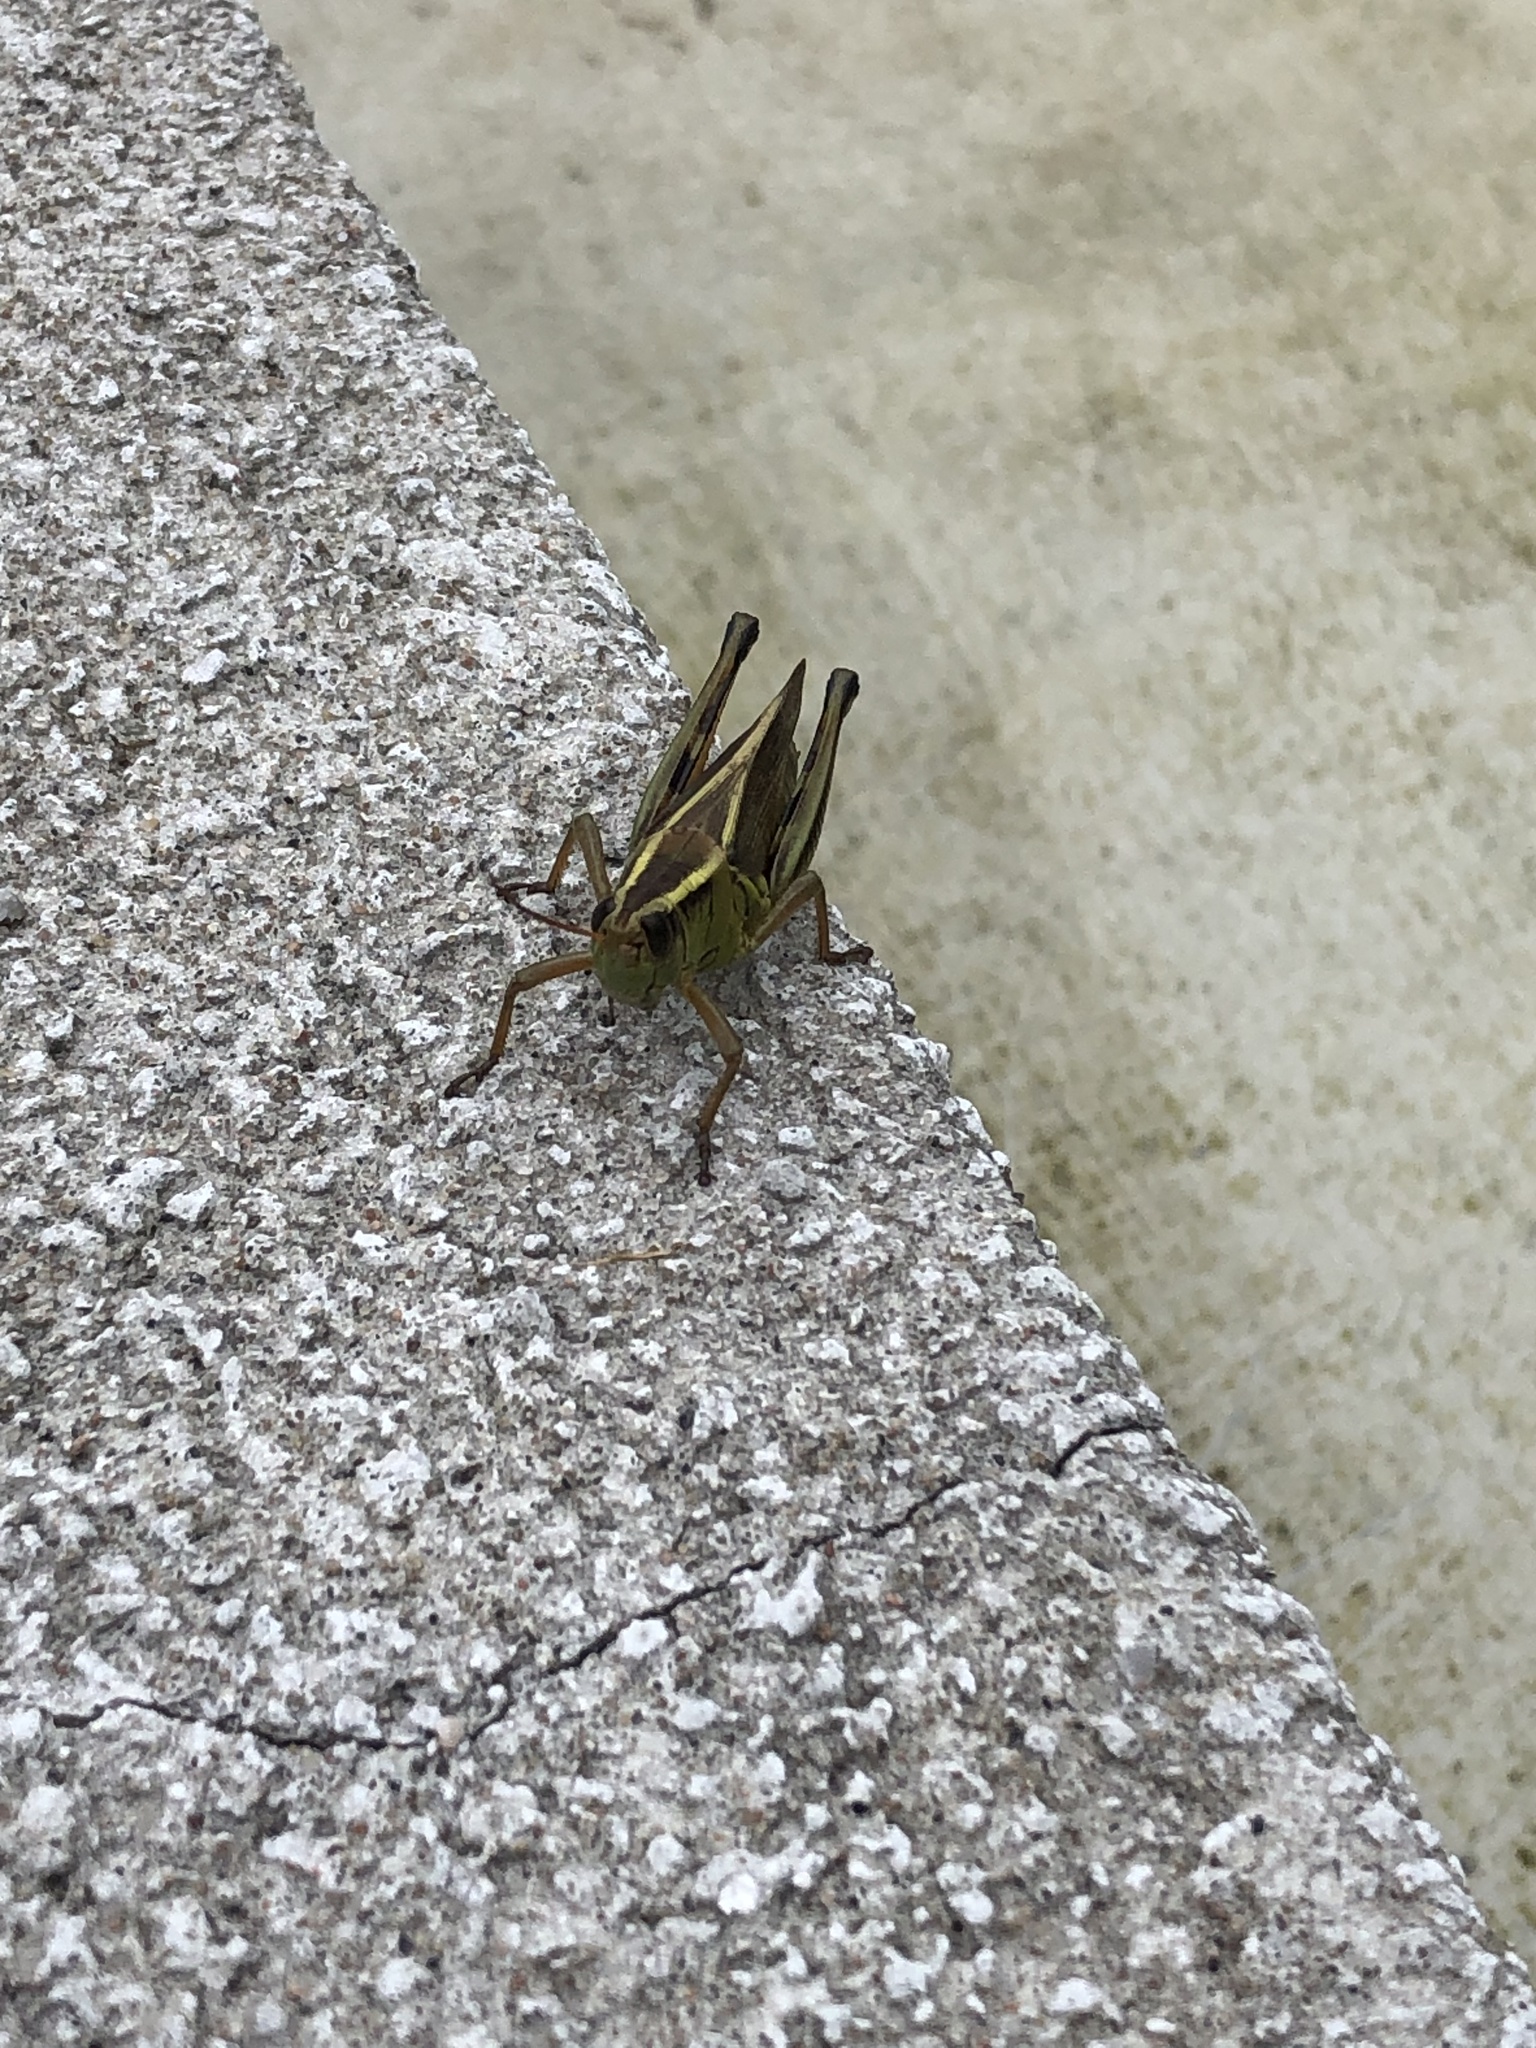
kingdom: Animalia
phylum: Arthropoda
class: Insecta
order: Orthoptera
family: Acrididae
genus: Melanoplus
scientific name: Melanoplus bivittatus
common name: Two-striped grasshopper
